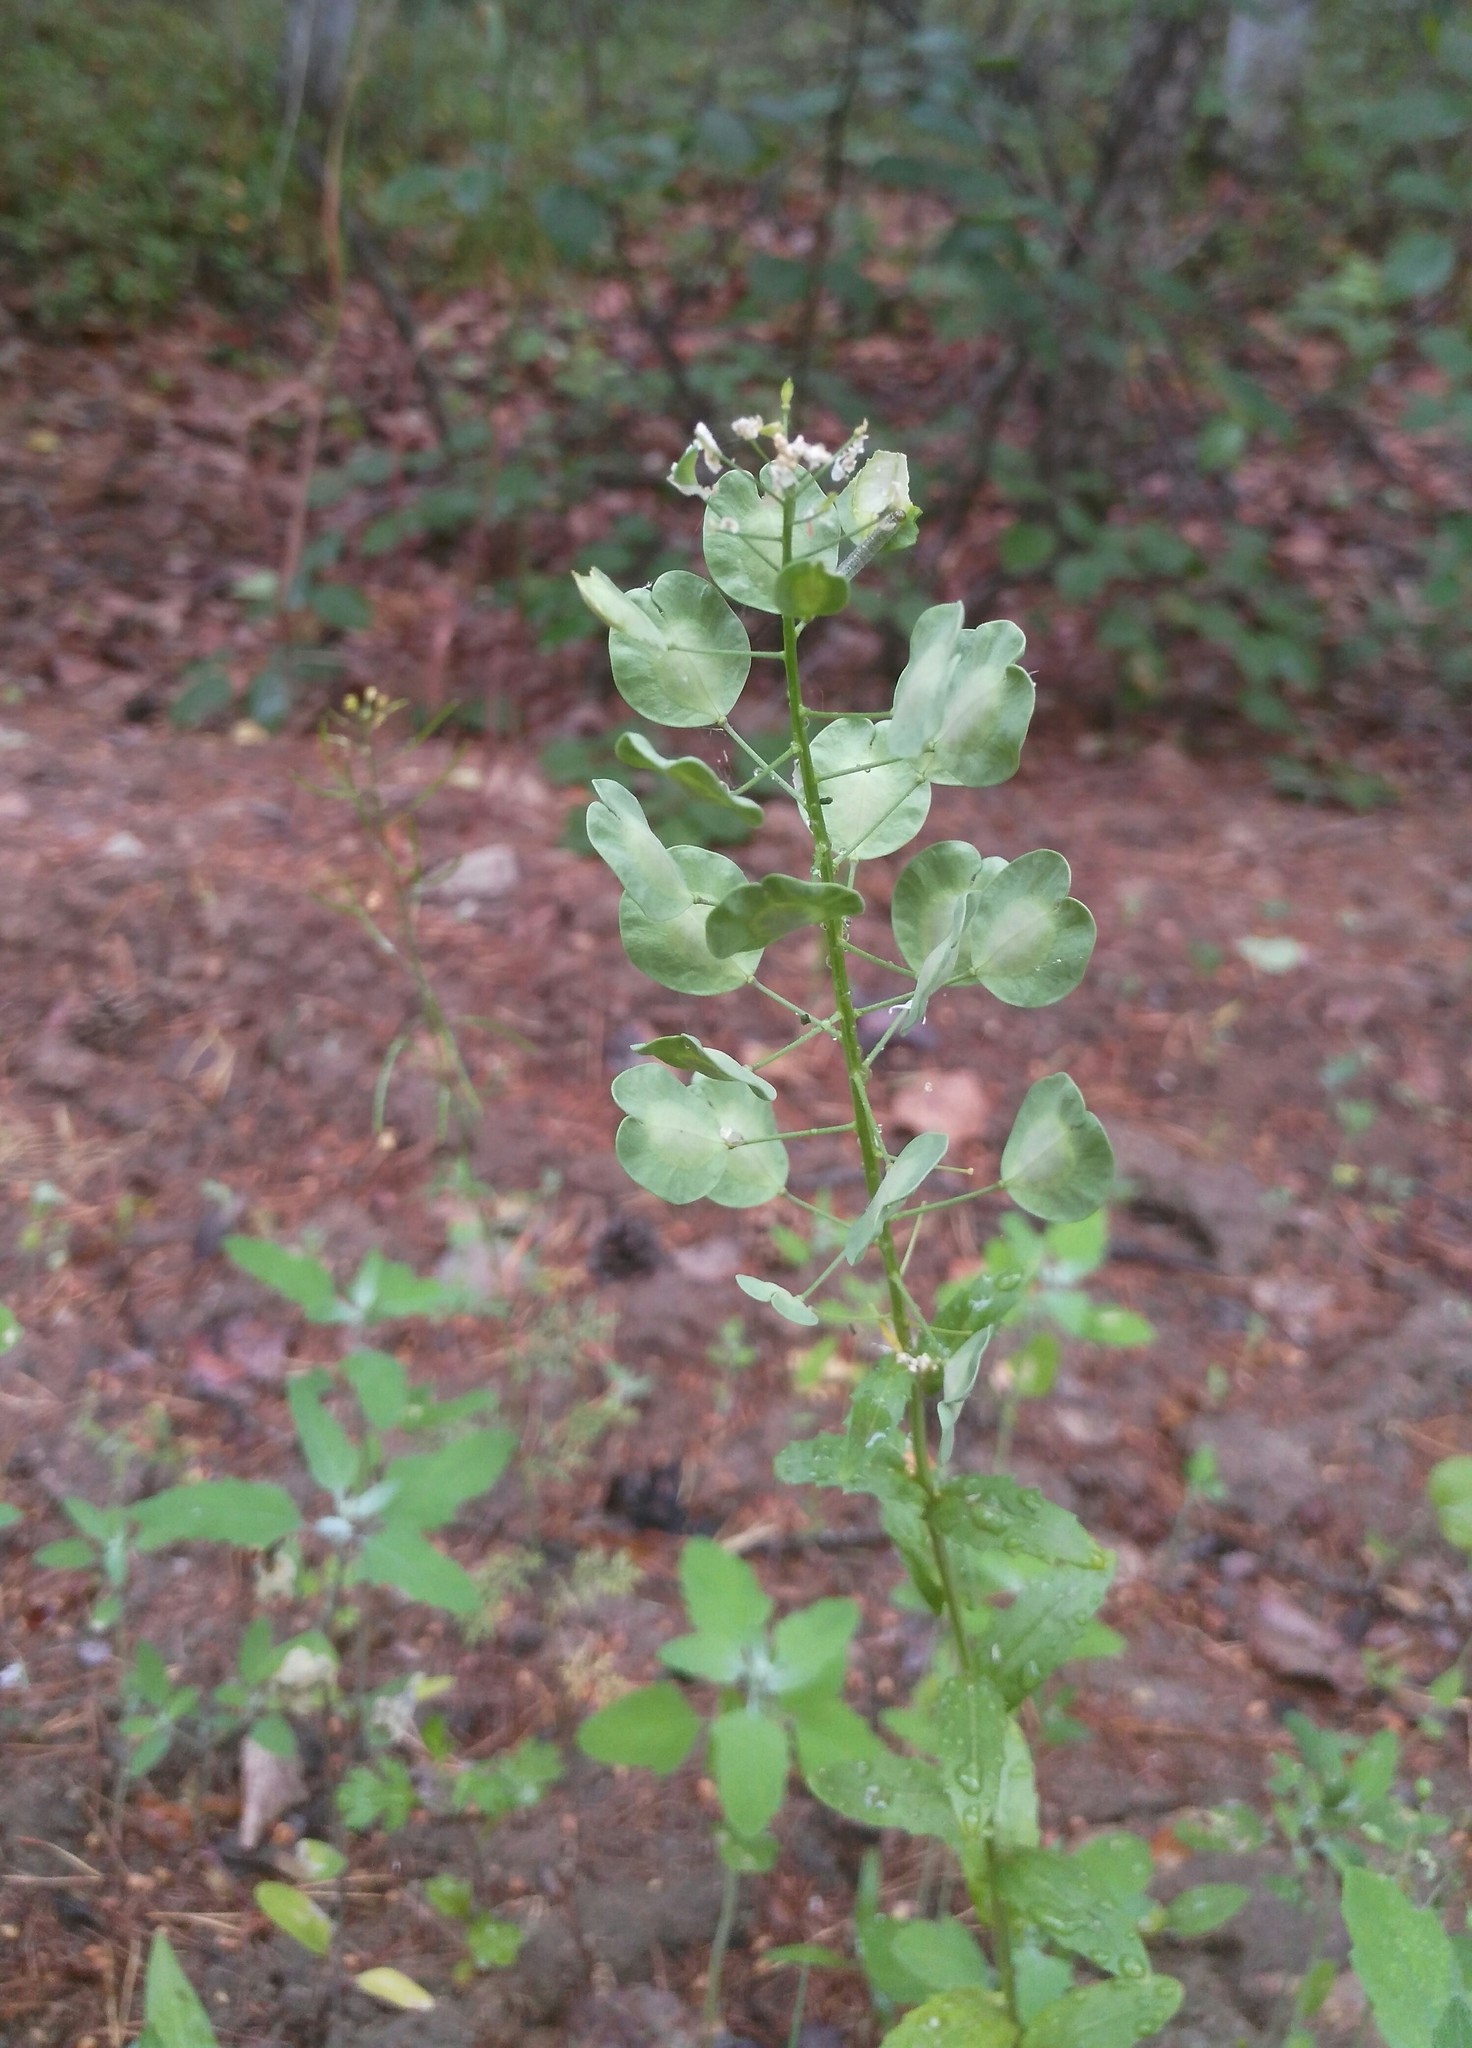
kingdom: Plantae
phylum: Tracheophyta
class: Magnoliopsida
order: Brassicales
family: Brassicaceae
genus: Thlaspi
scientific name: Thlaspi arvense
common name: Field pennycress
